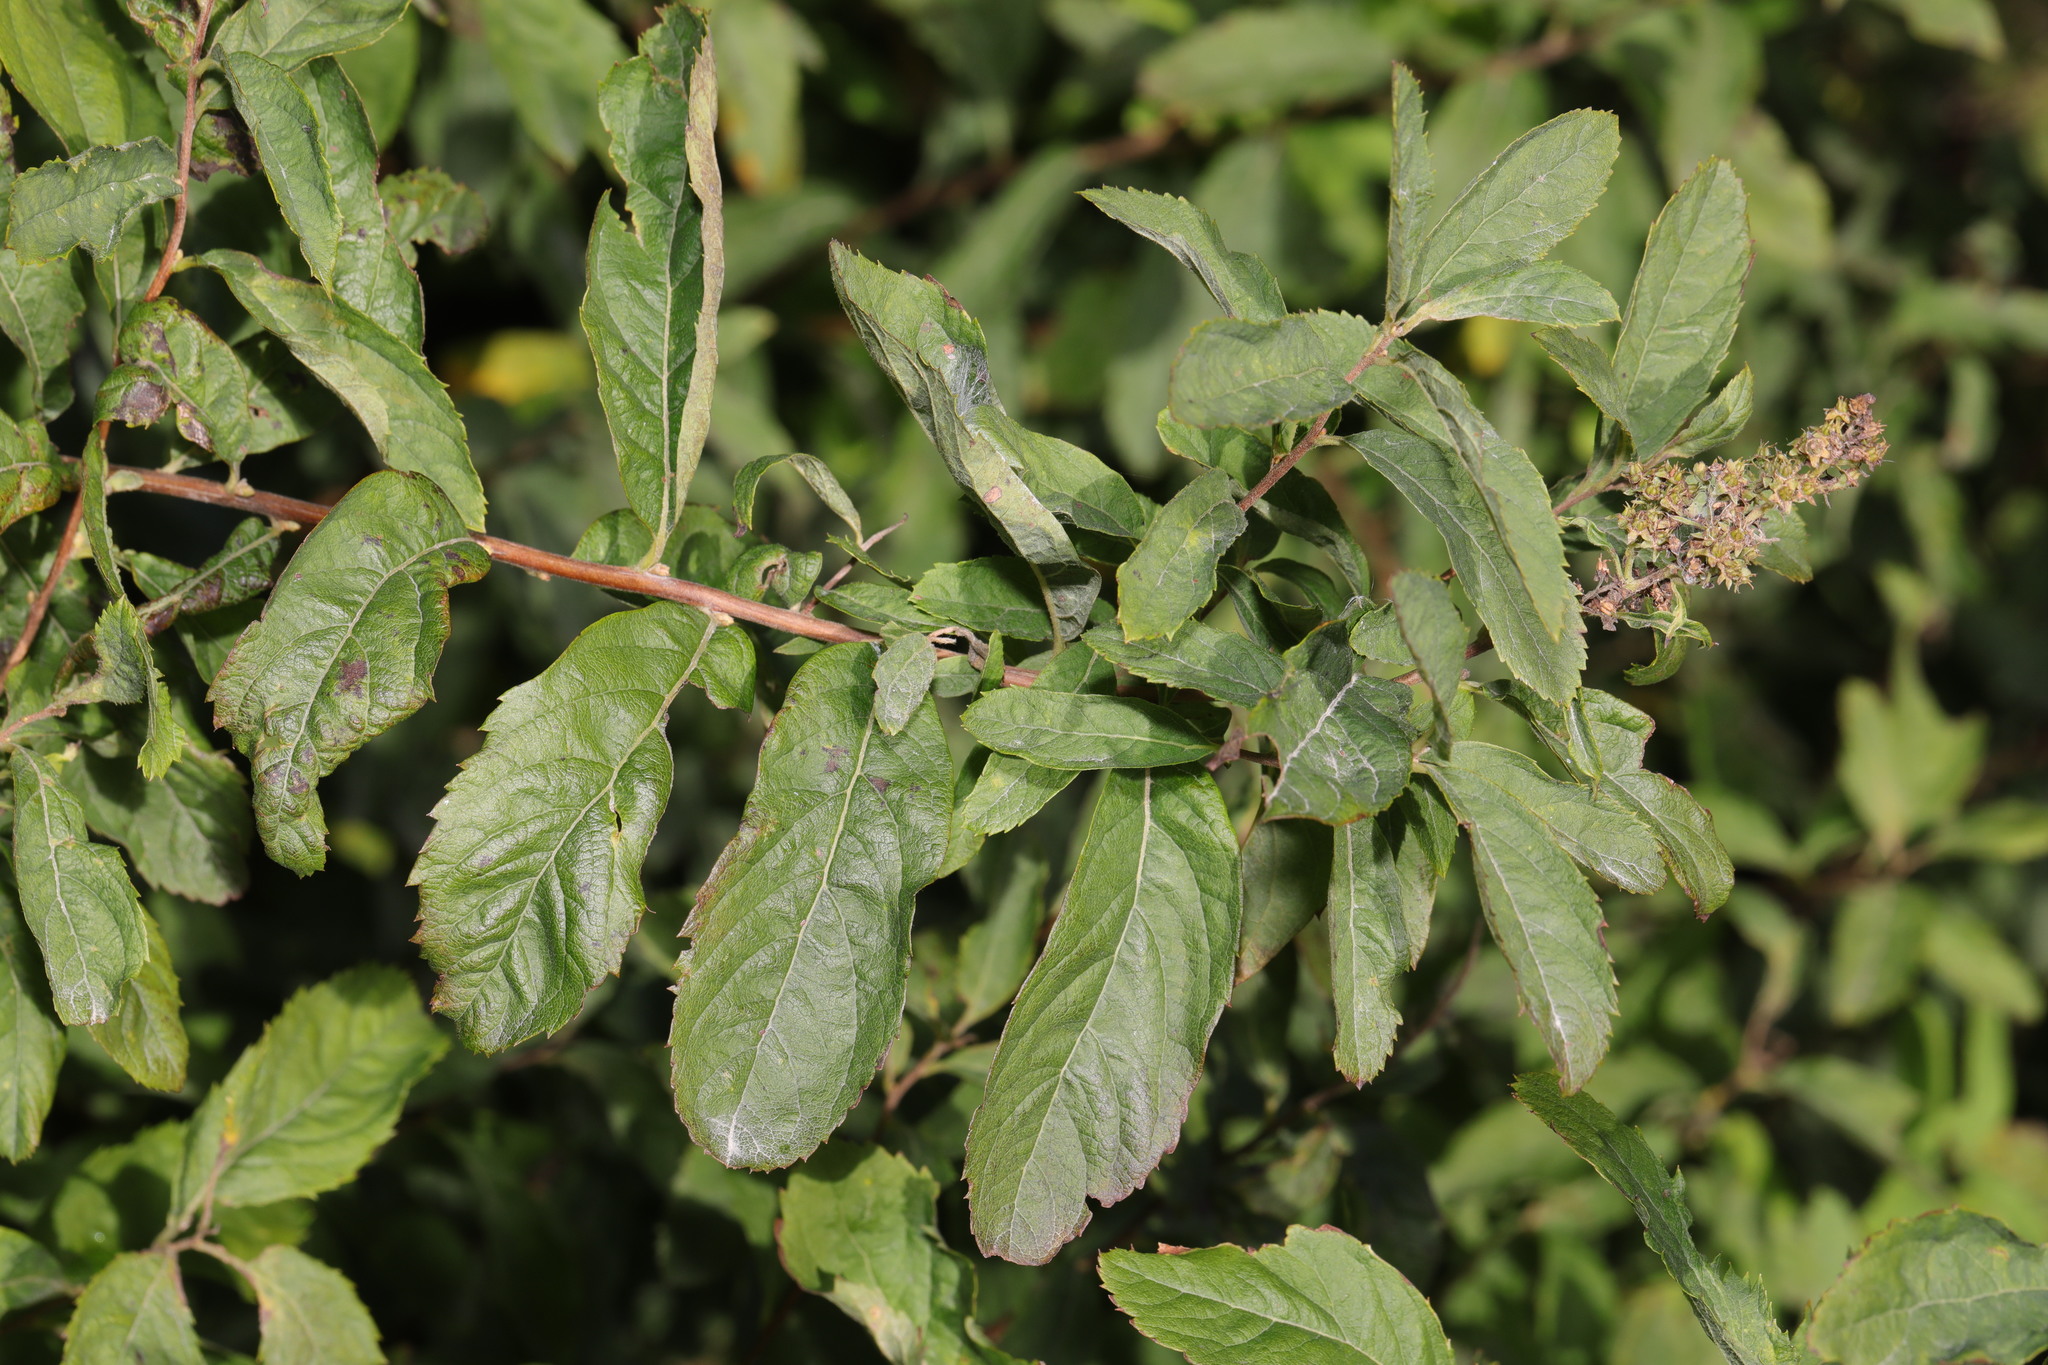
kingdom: Plantae
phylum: Tracheophyta
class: Magnoliopsida
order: Rosales
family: Rosaceae
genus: Spiraea
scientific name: Spiraea douglasii
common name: Steeplebush
